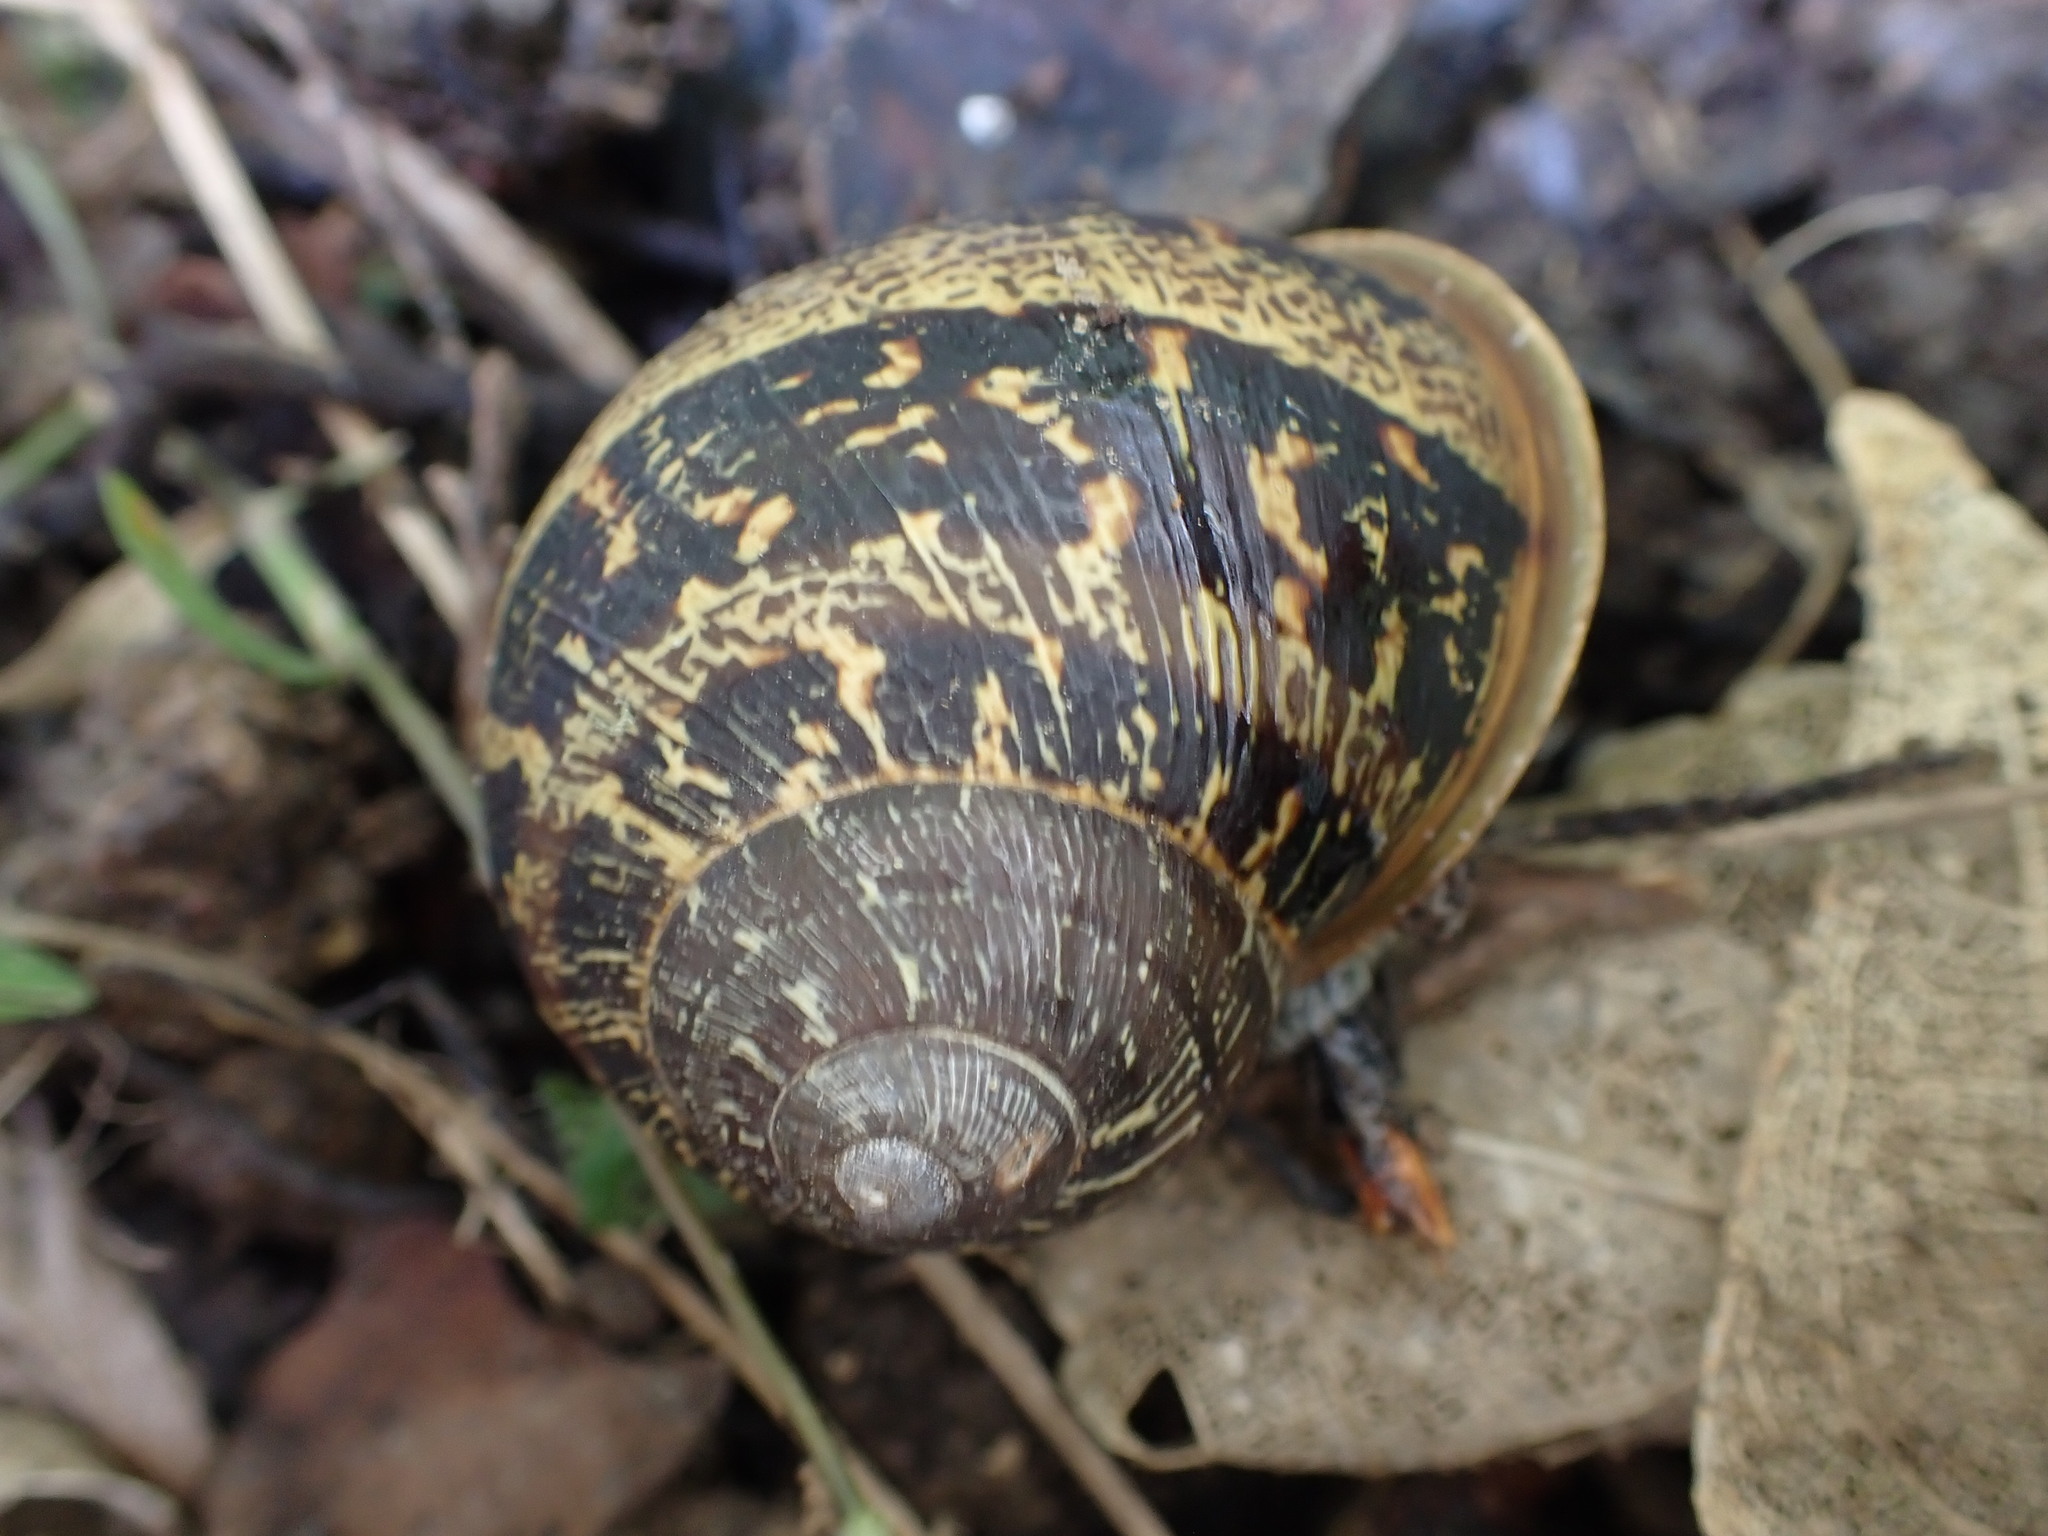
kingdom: Animalia
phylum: Mollusca
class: Gastropoda
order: Stylommatophora
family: Helicidae
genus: Cornu
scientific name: Cornu aspersum
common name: Brown garden snail
